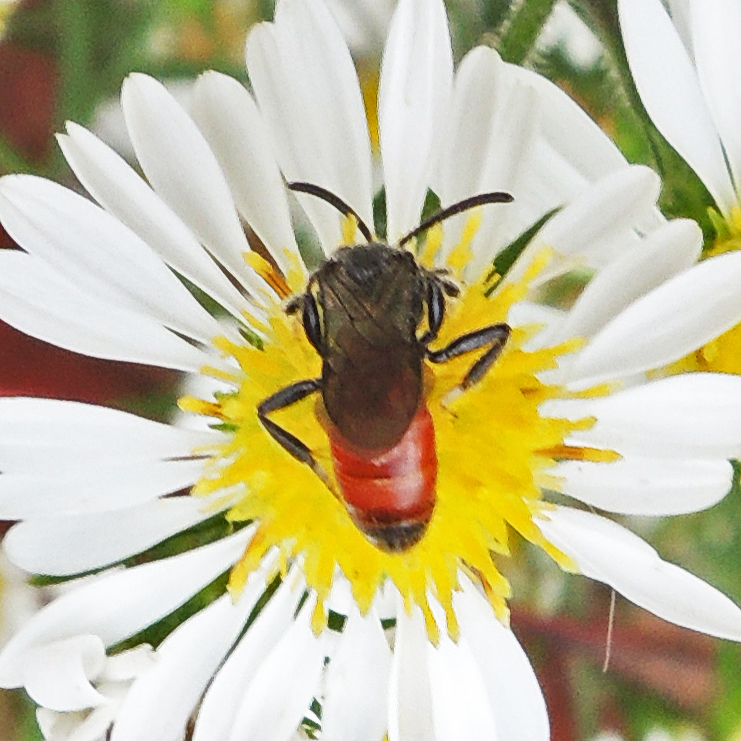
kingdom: Animalia
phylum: Arthropoda
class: Insecta
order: Hymenoptera
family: Halictidae
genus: Sphecodes
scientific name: Sphecodes
